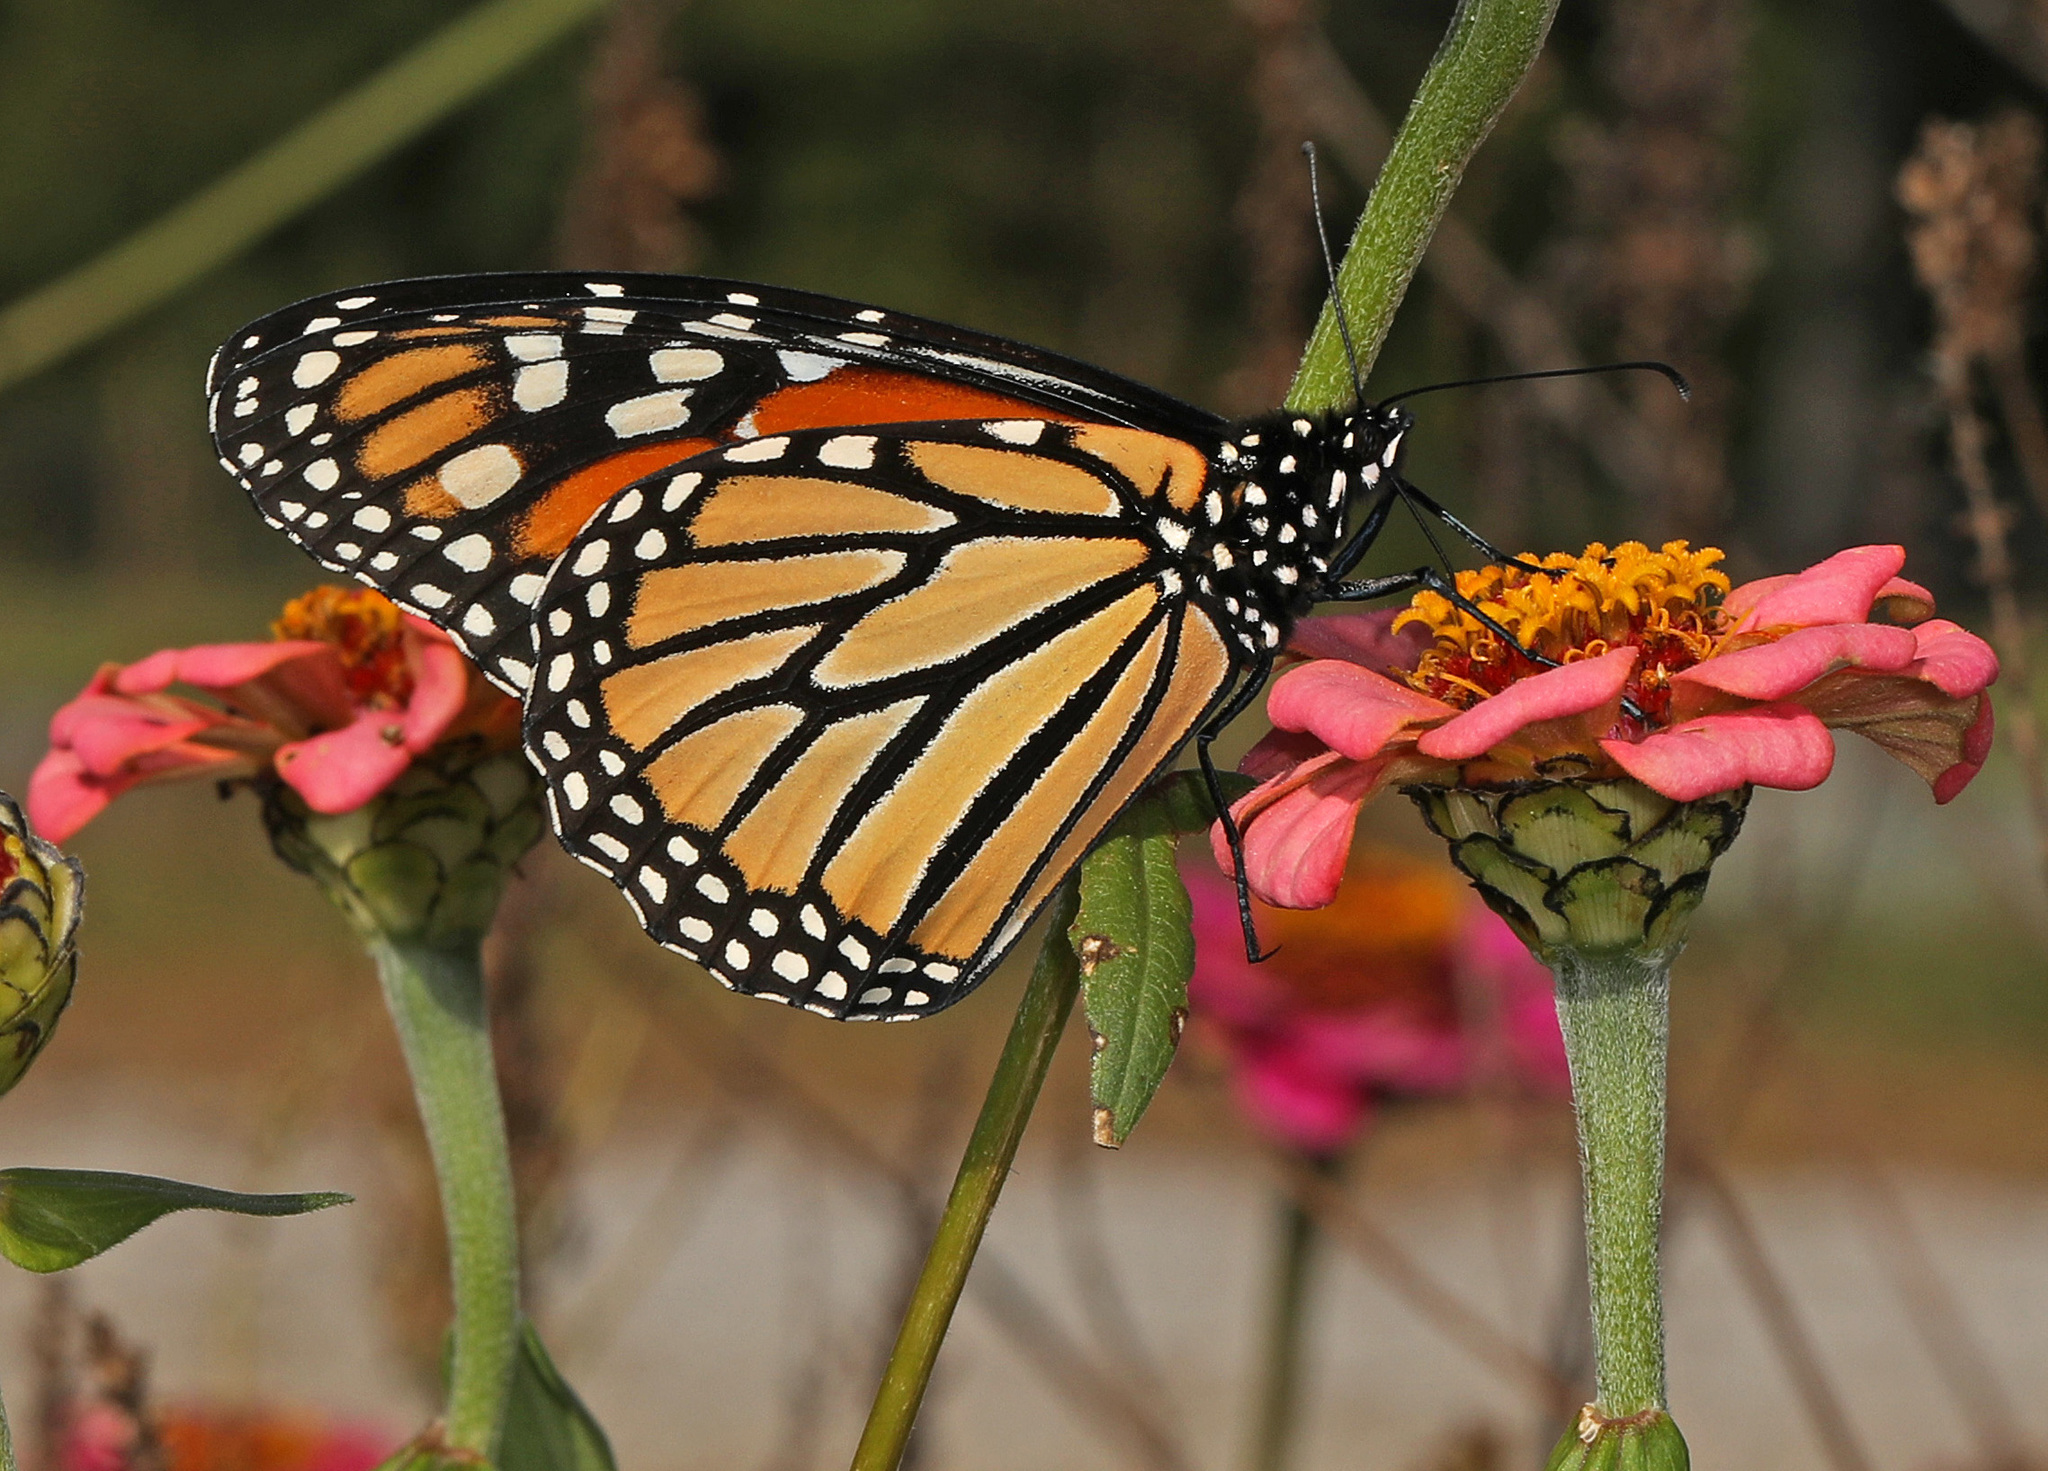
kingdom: Animalia
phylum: Arthropoda
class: Insecta
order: Lepidoptera
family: Nymphalidae
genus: Danaus
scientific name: Danaus plexippus
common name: Monarch
